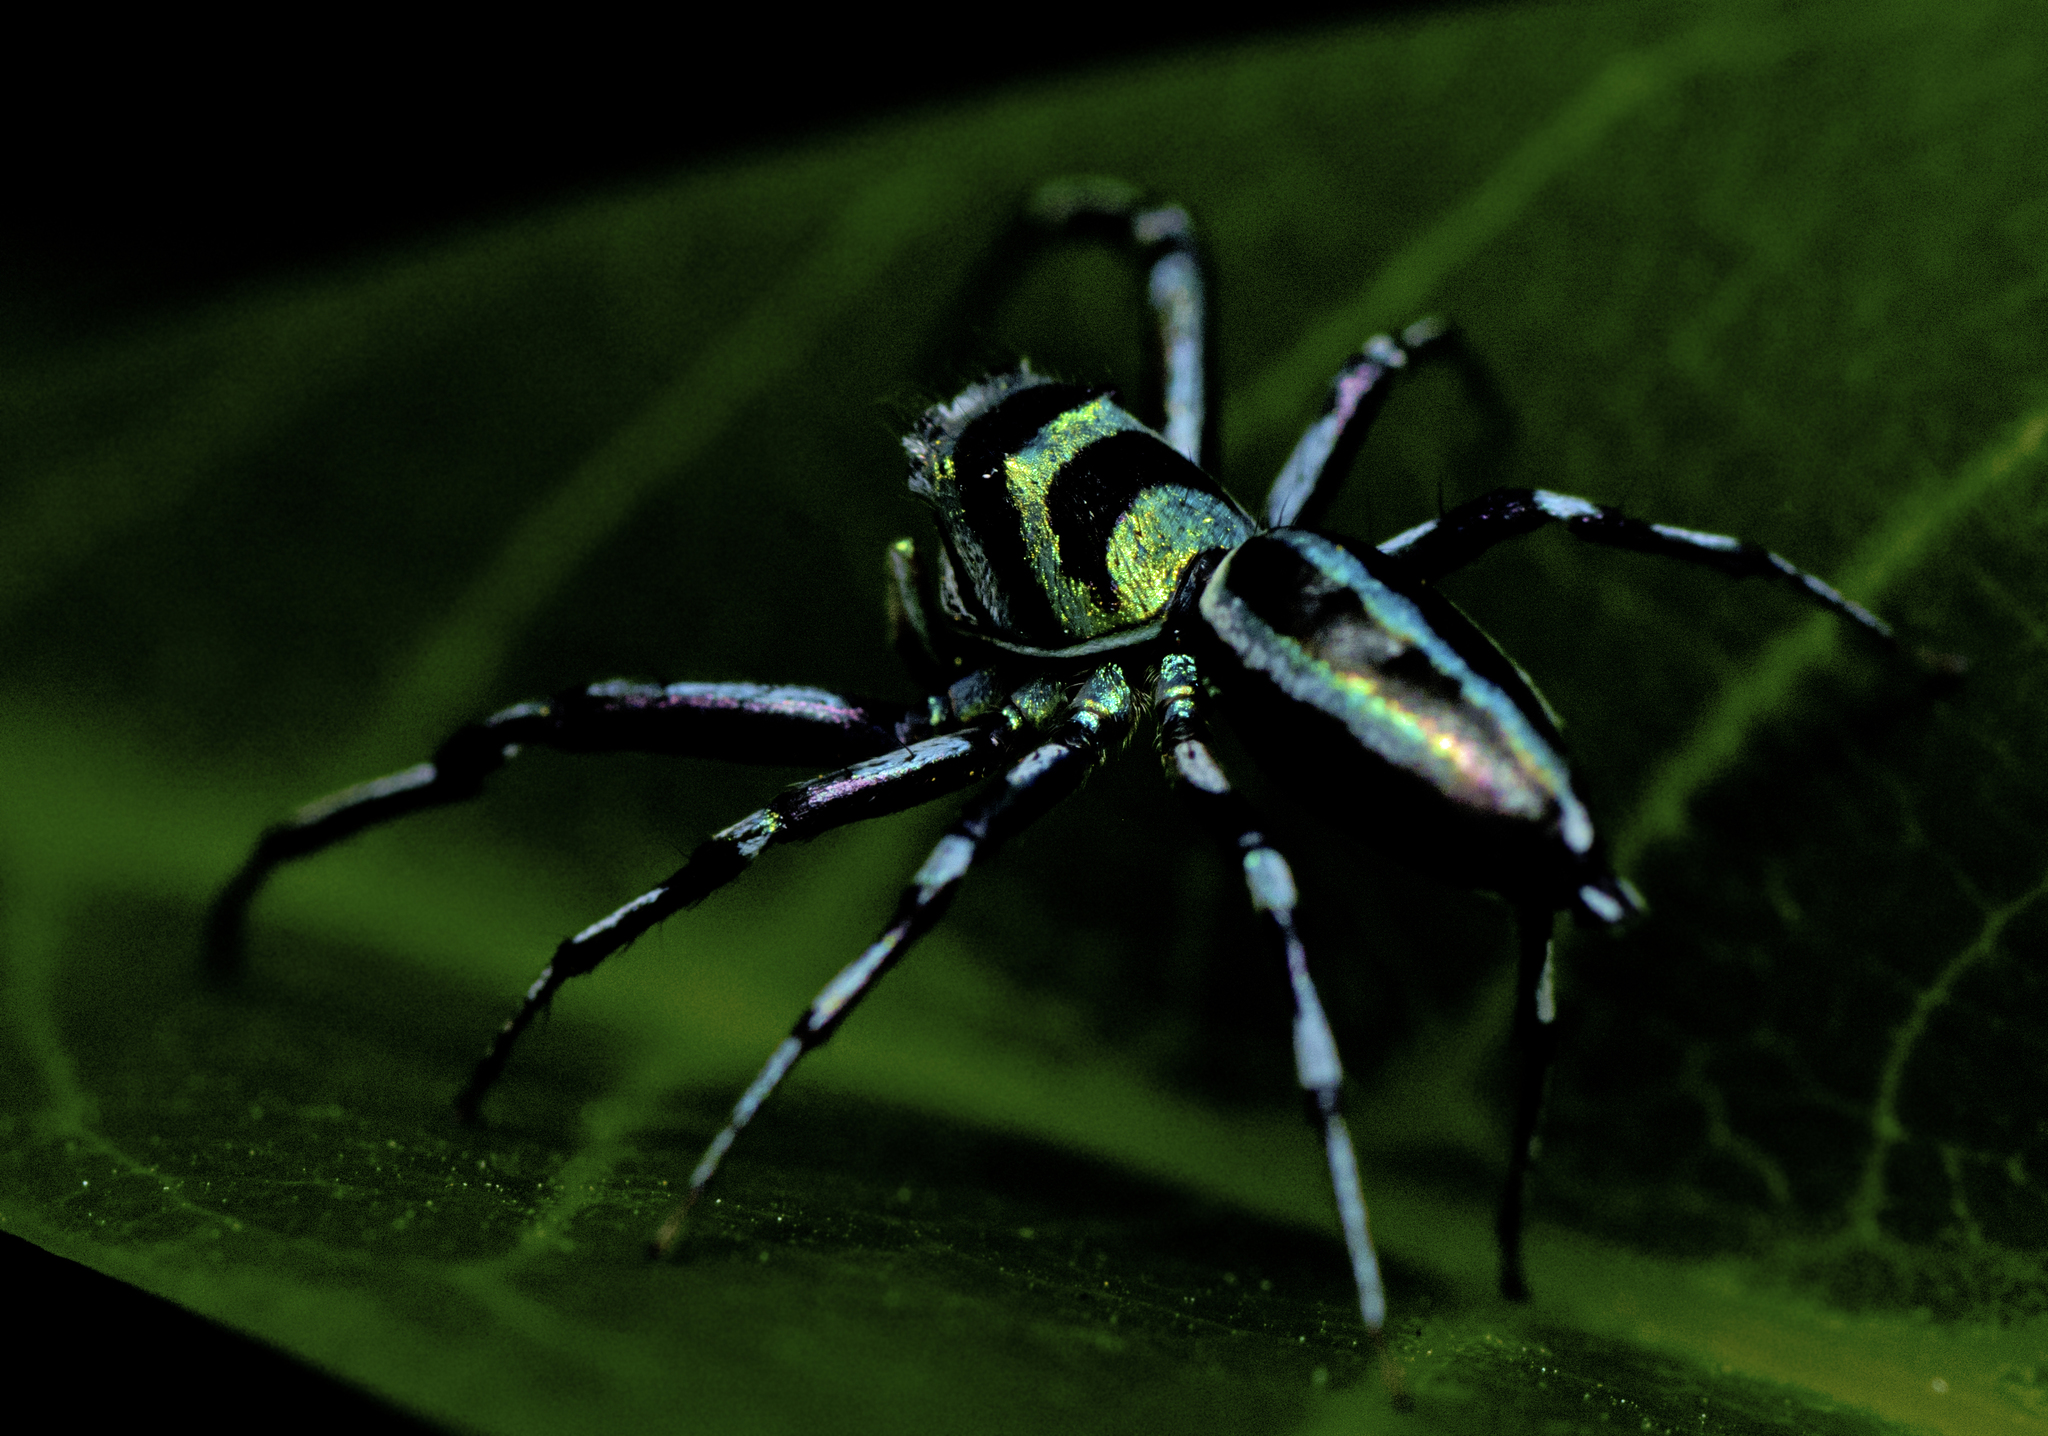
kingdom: Animalia
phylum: Arthropoda
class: Arachnida
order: Araneae
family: Salticidae
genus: Cosmophasis
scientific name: Cosmophasis micarioides
